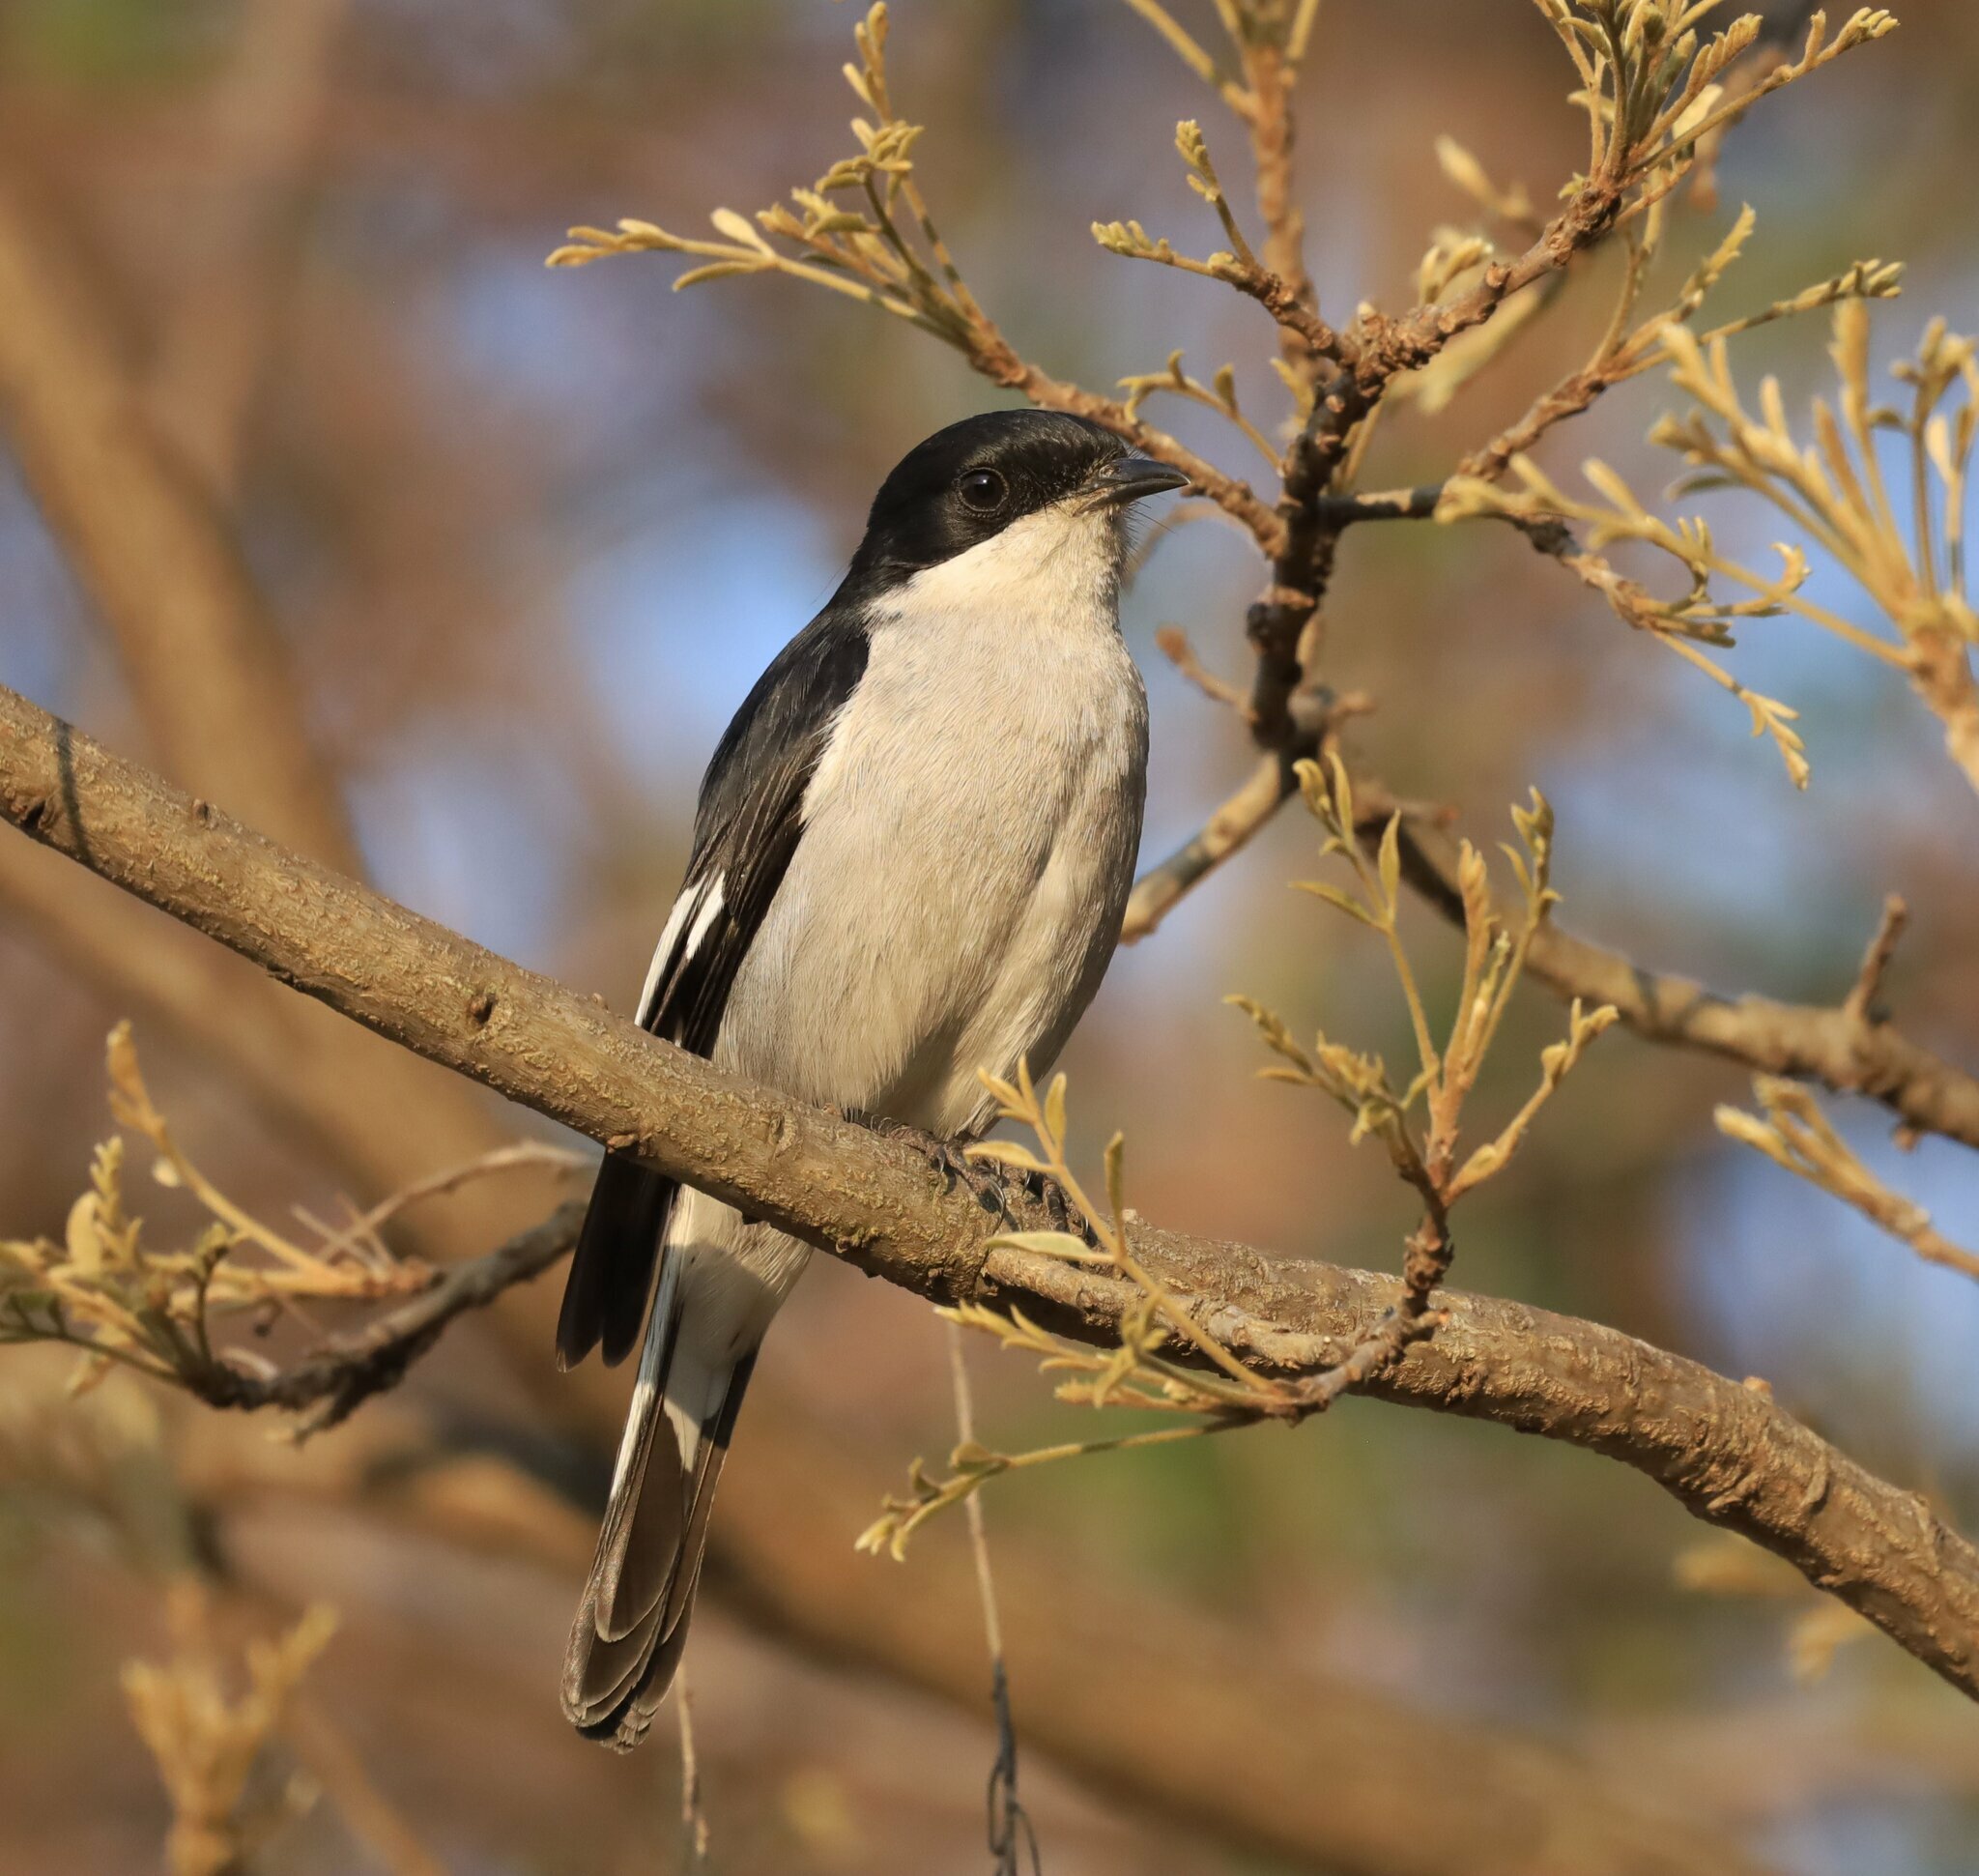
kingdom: Animalia
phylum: Chordata
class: Aves
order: Passeriformes
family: Muscicapidae
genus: Sigelus
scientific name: Sigelus silens
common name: Fiscal flycatcher
